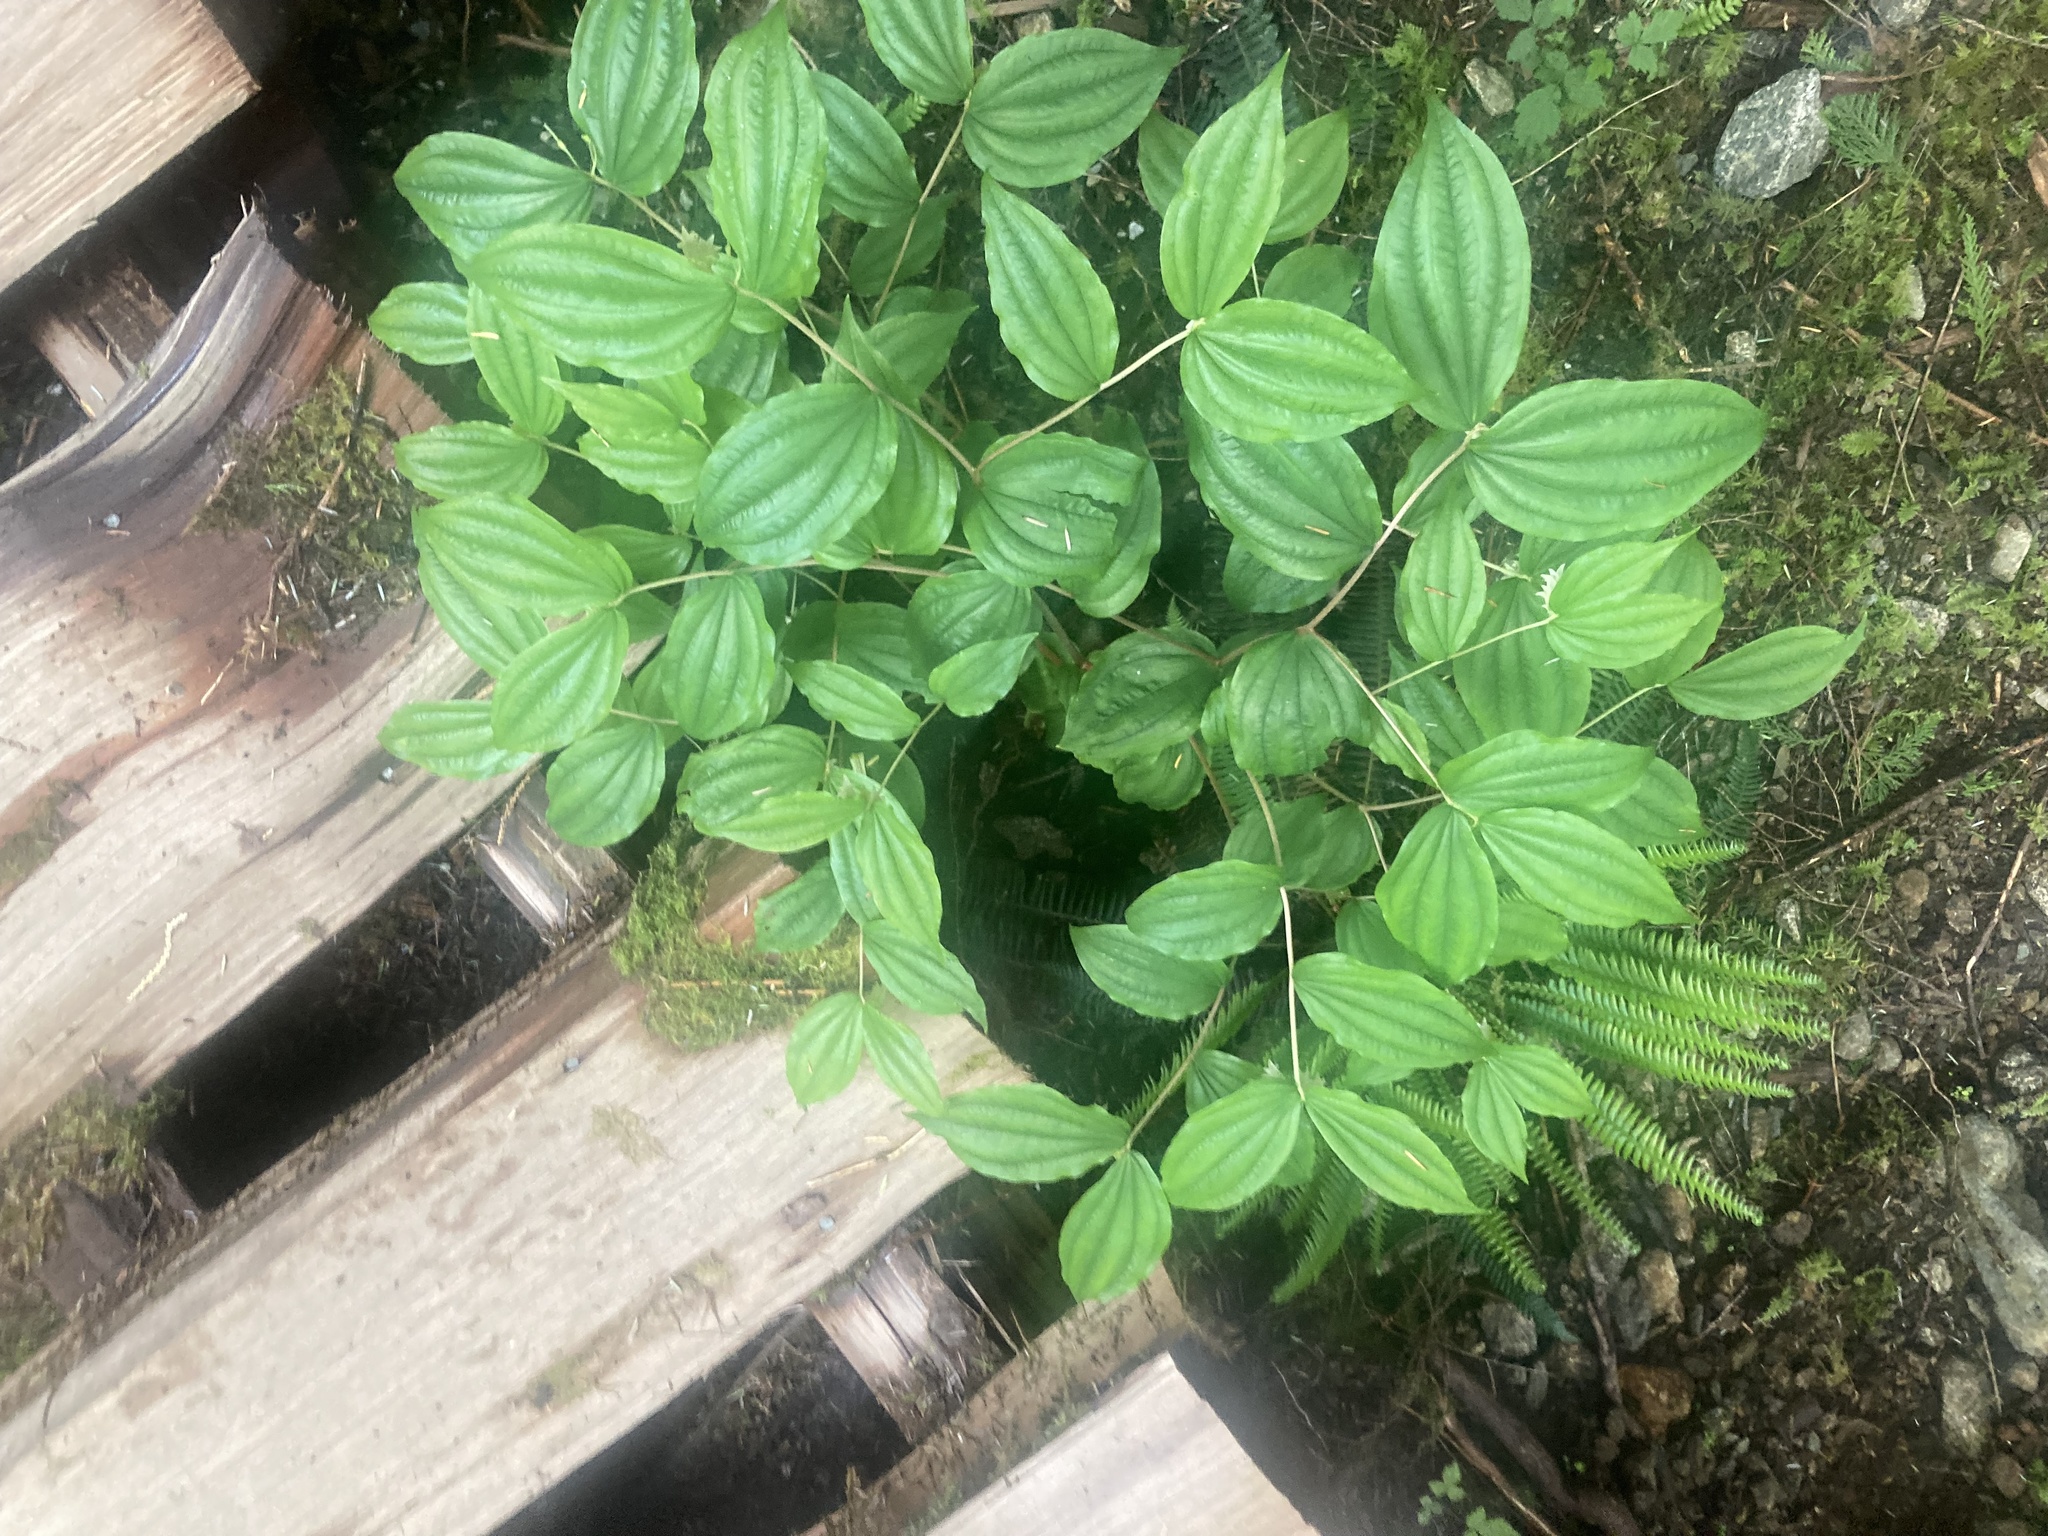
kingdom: Plantae
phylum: Tracheophyta
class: Liliopsida
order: Liliales
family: Liliaceae
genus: Prosartes
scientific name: Prosartes smithii
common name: Fairy-lantern
